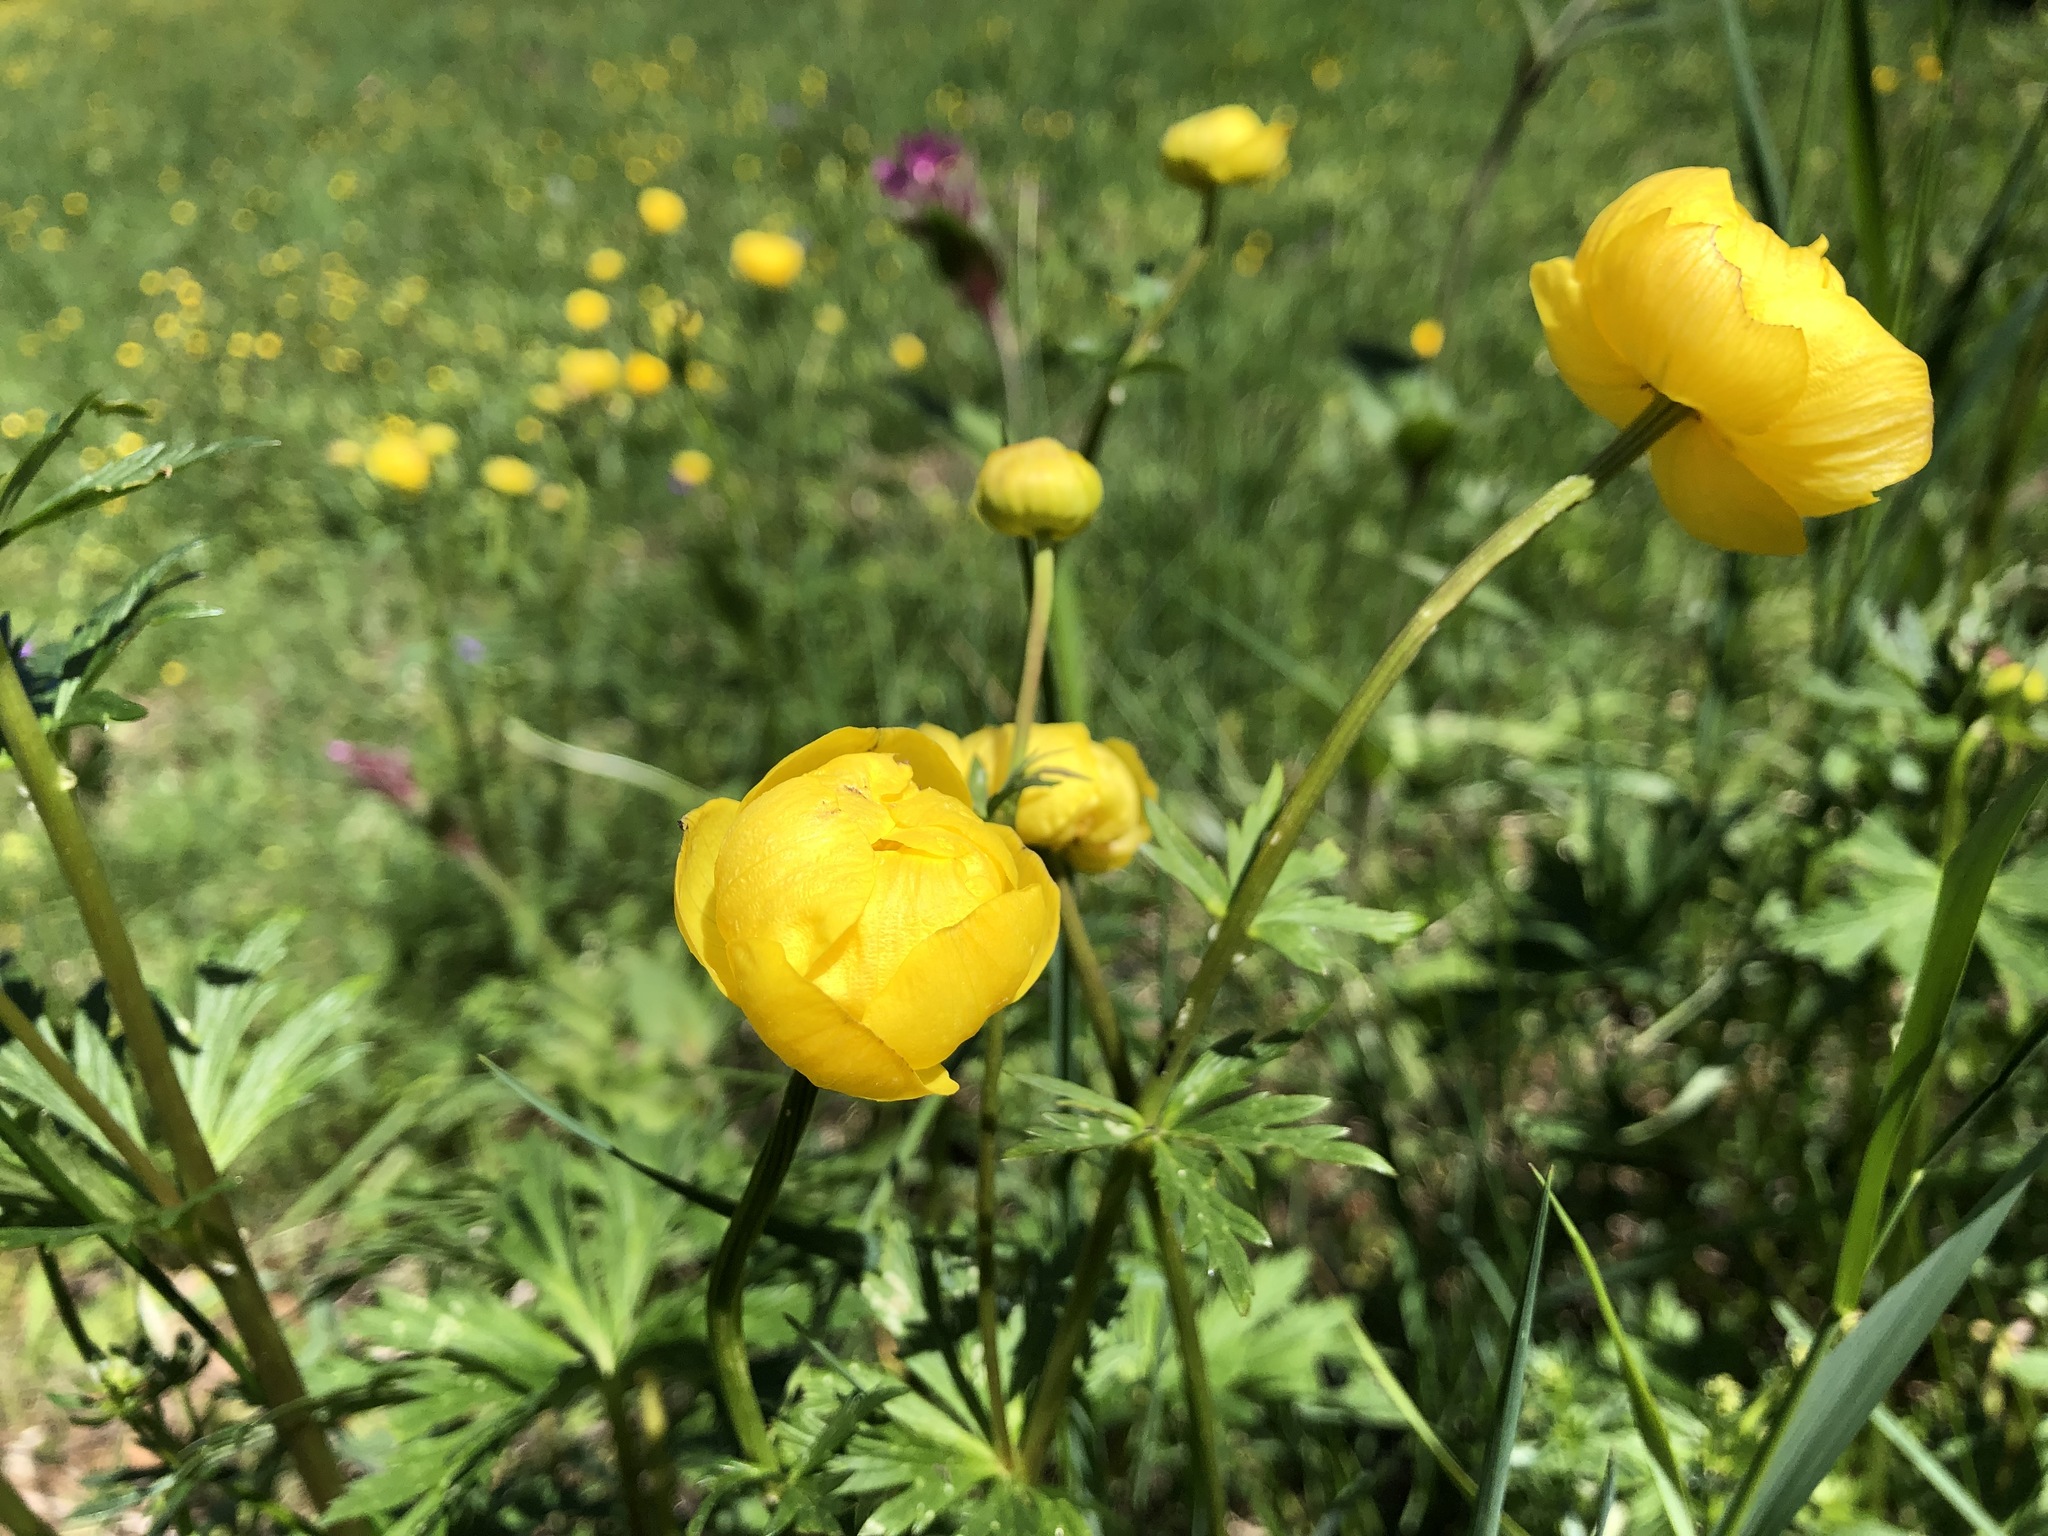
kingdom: Plantae
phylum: Tracheophyta
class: Magnoliopsida
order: Ranunculales
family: Ranunculaceae
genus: Trollius
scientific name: Trollius europaeus
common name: European globeflower
